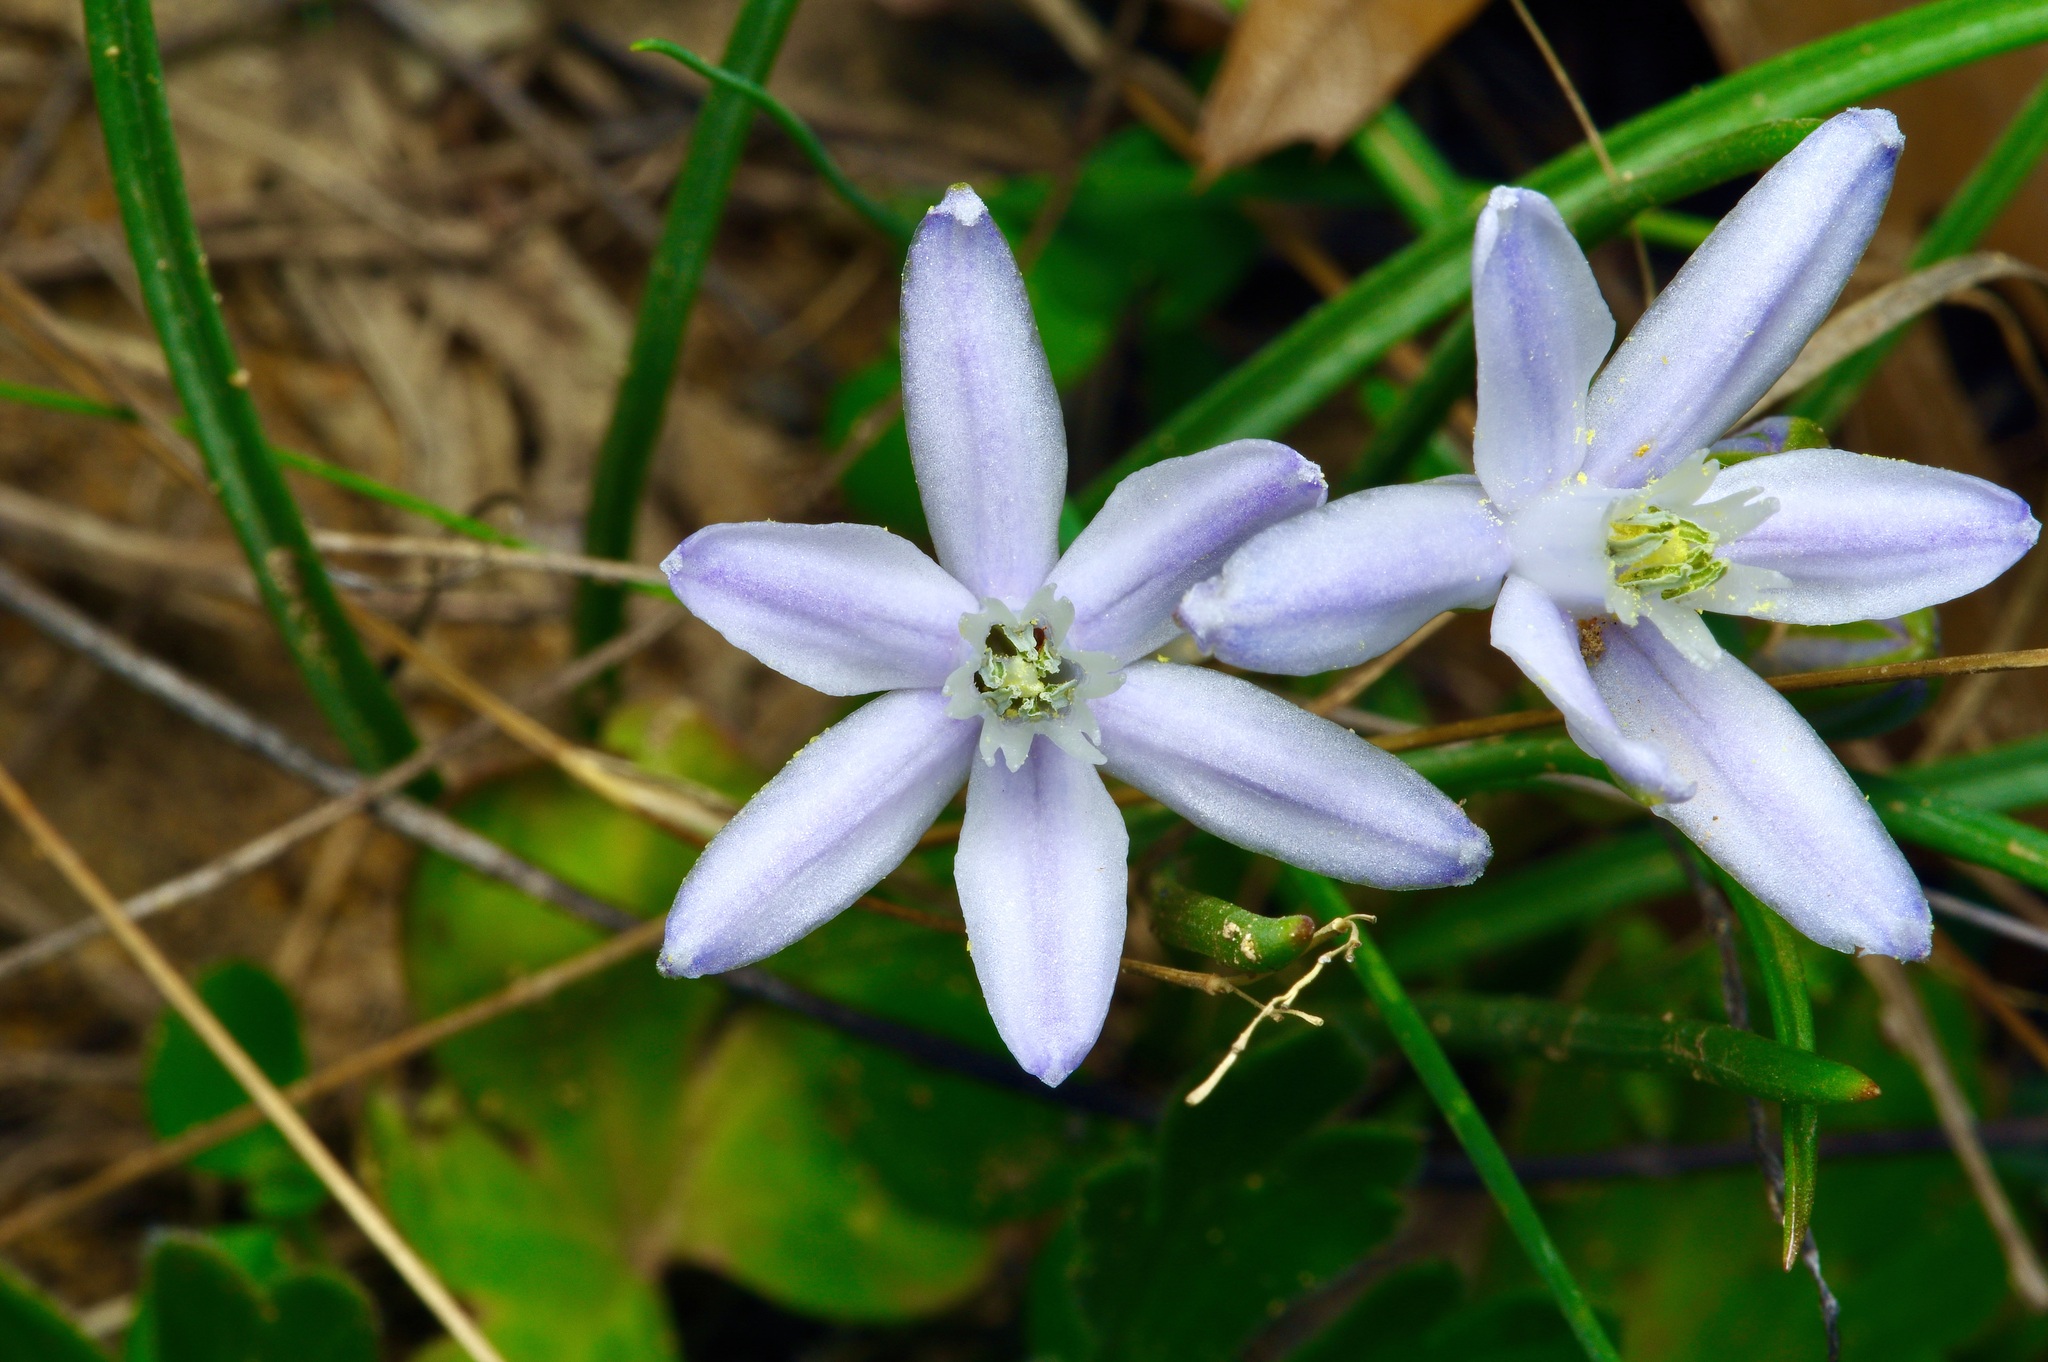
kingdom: Plantae
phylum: Tracheophyta
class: Liliopsida
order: Asparagales
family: Asparagaceae
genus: Androstephium
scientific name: Androstephium coeruleum
